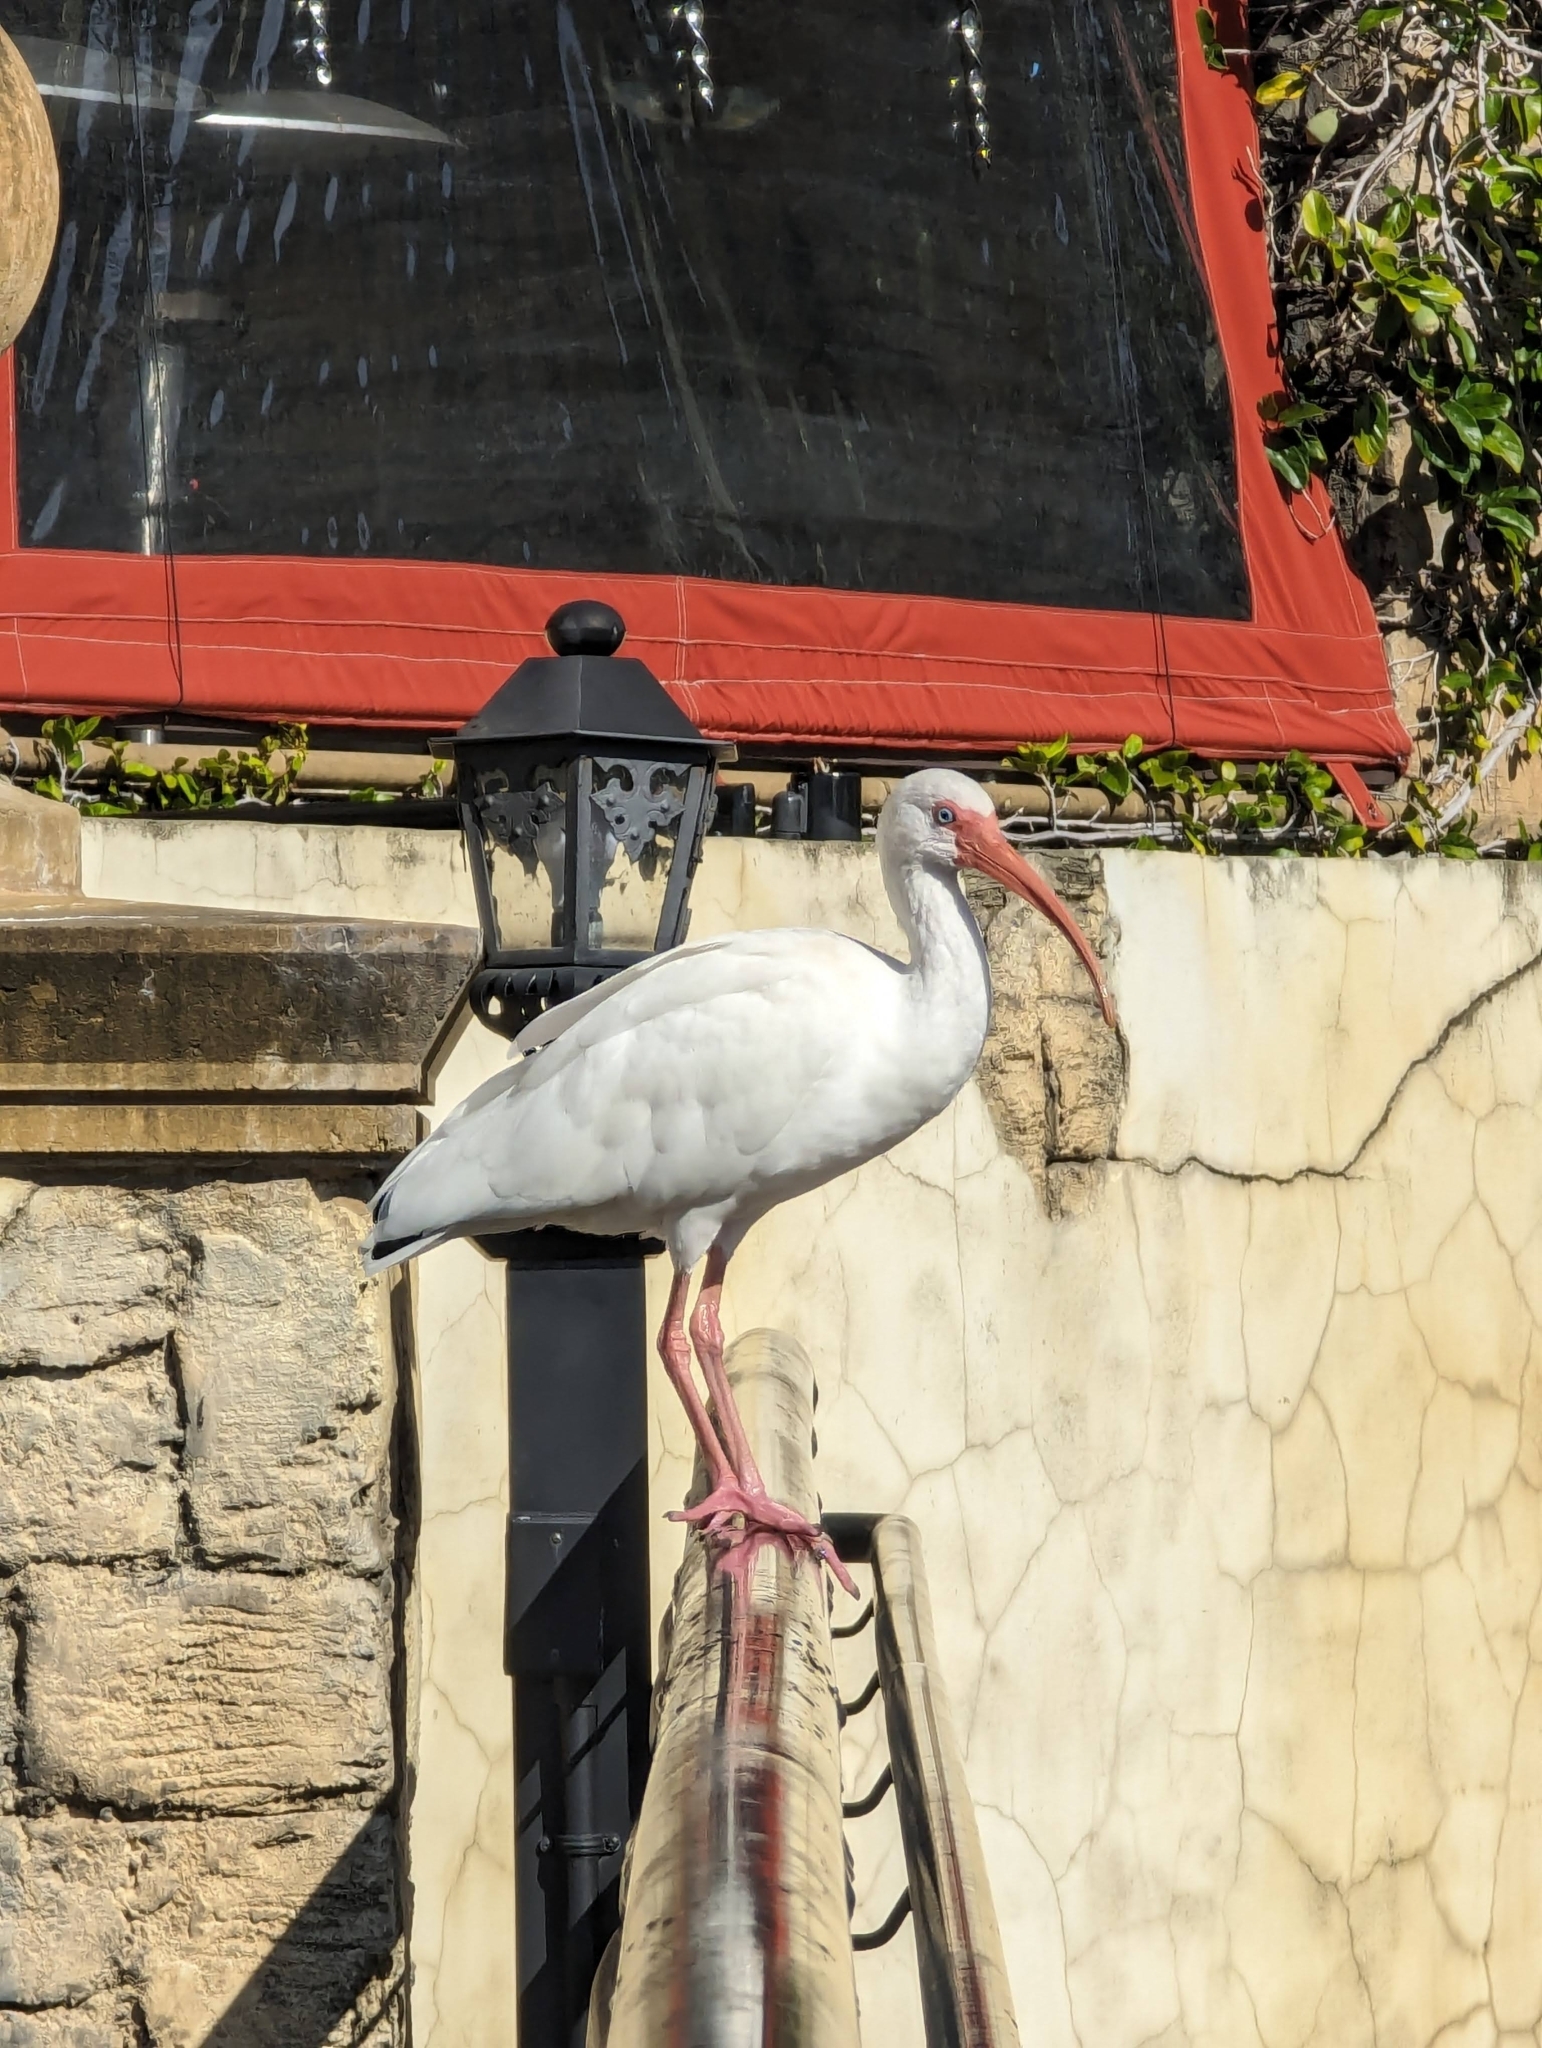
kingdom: Animalia
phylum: Chordata
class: Aves
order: Pelecaniformes
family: Threskiornithidae
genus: Eudocimus
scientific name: Eudocimus albus
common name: White ibis
